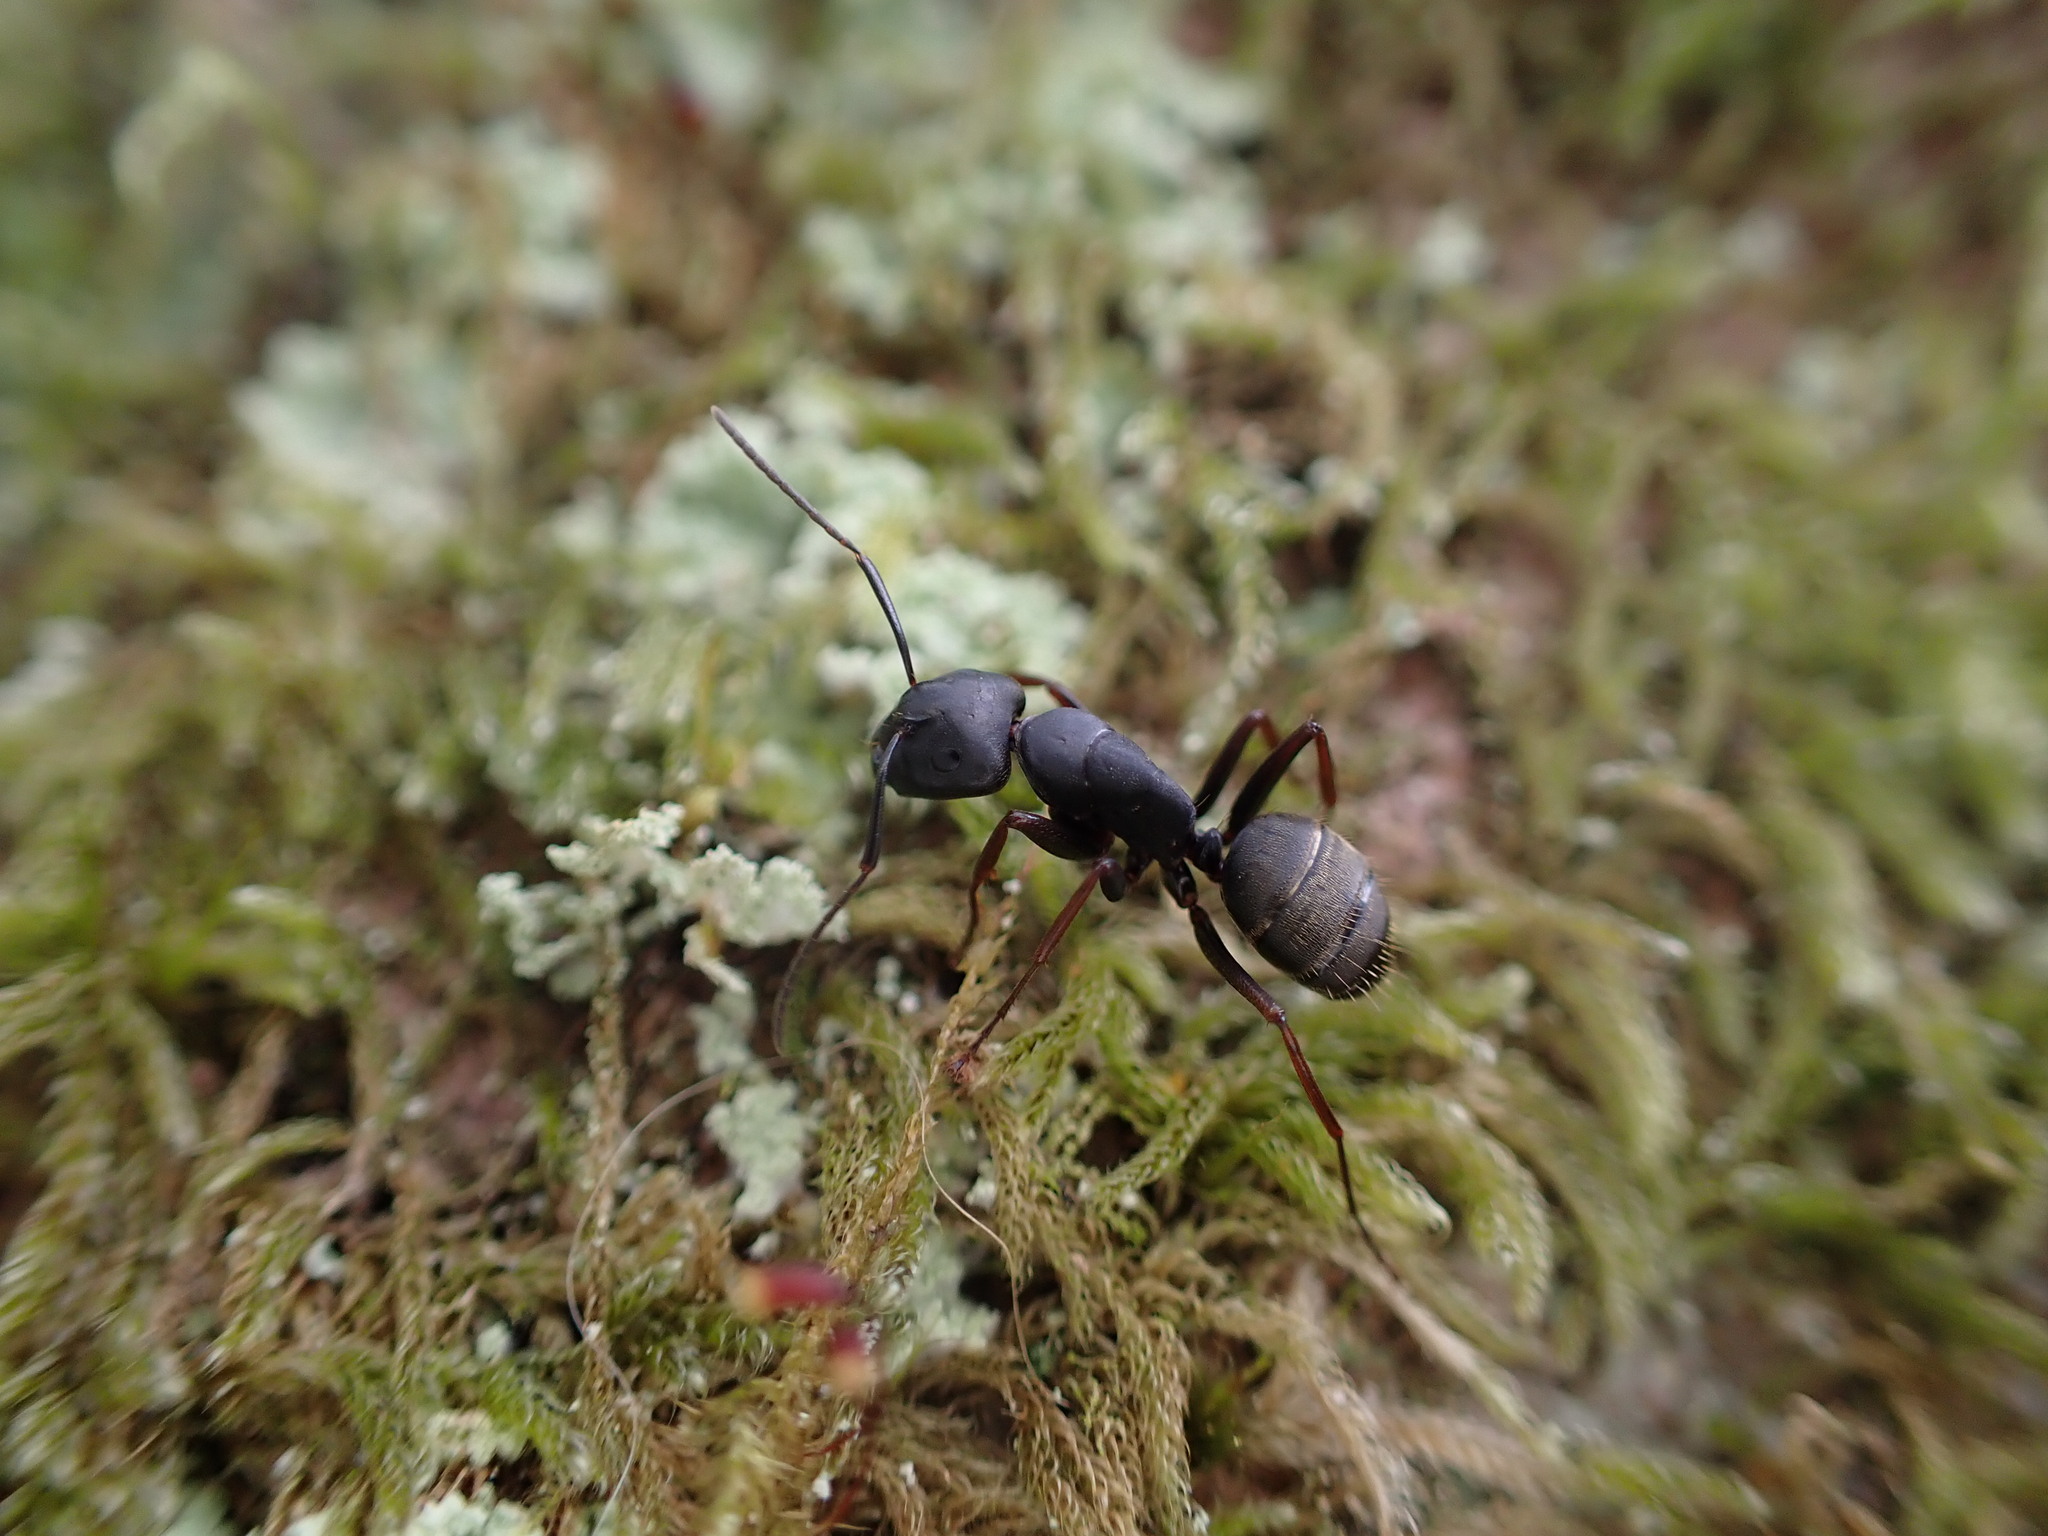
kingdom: Animalia
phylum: Arthropoda
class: Insecta
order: Hymenoptera
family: Formicidae
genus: Camponotus
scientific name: Camponotus modoc
